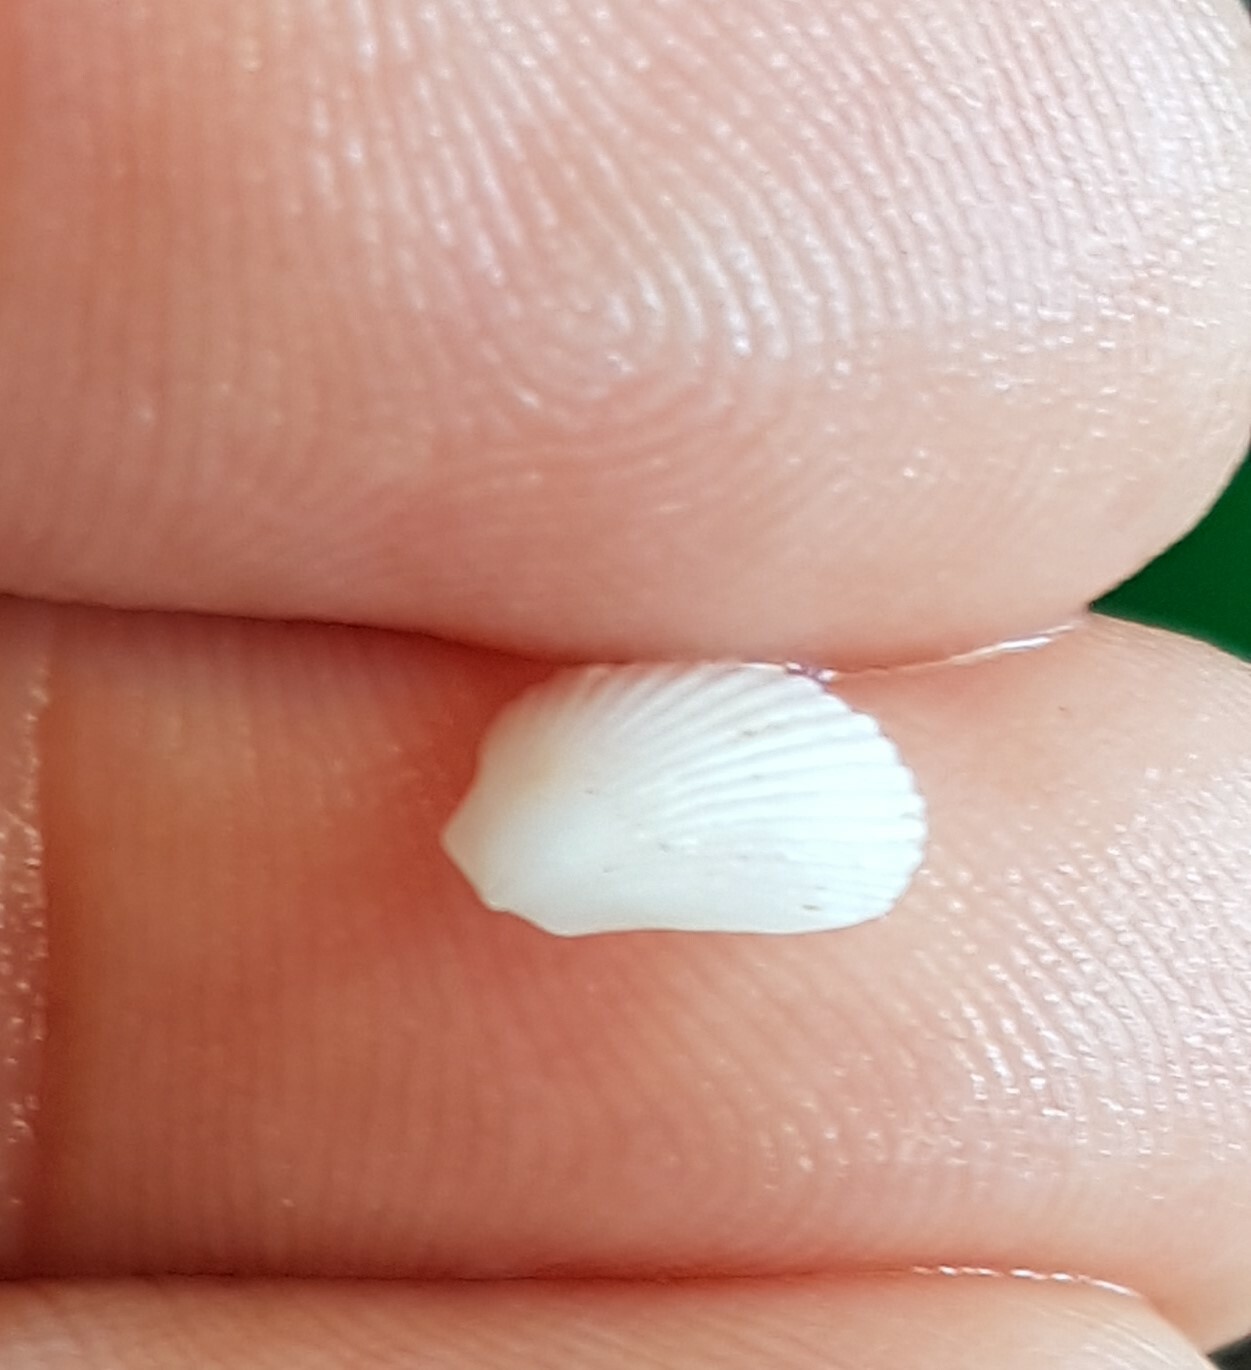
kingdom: Animalia
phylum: Mollusca
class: Bivalvia
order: Limida
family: Limidae
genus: Lima
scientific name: Lima lima
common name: Frilled file shell
